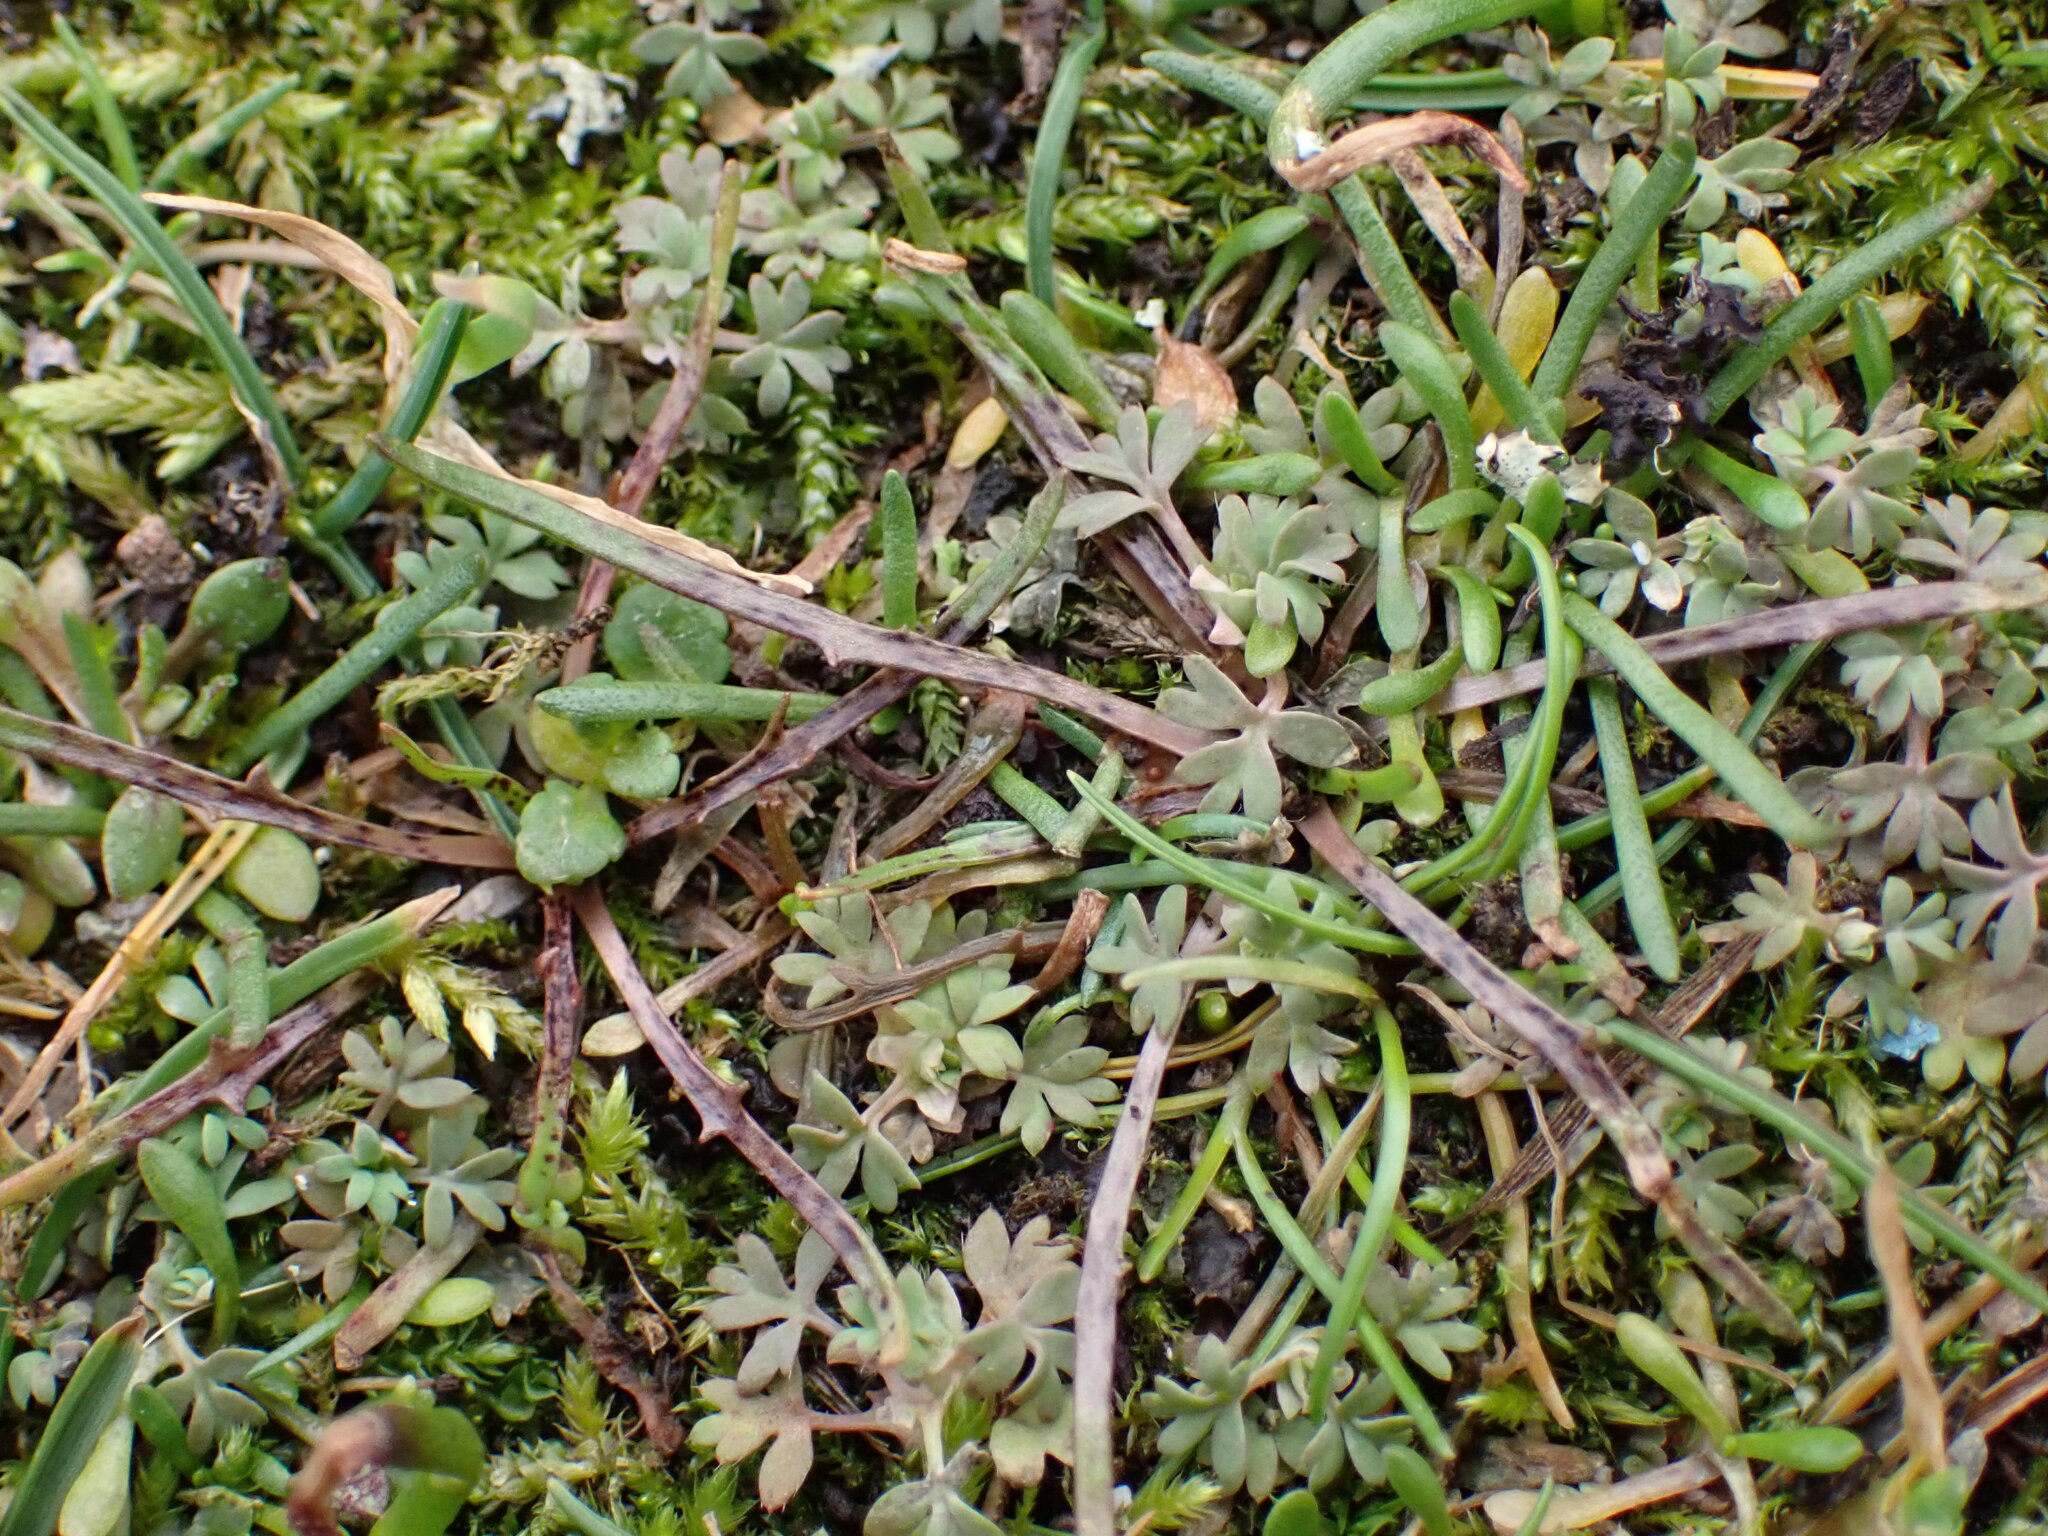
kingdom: Plantae
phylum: Tracheophyta
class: Magnoliopsida
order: Asterales
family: Asteraceae
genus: Microseris
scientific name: Microseris bigelovii
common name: Coast microseris
